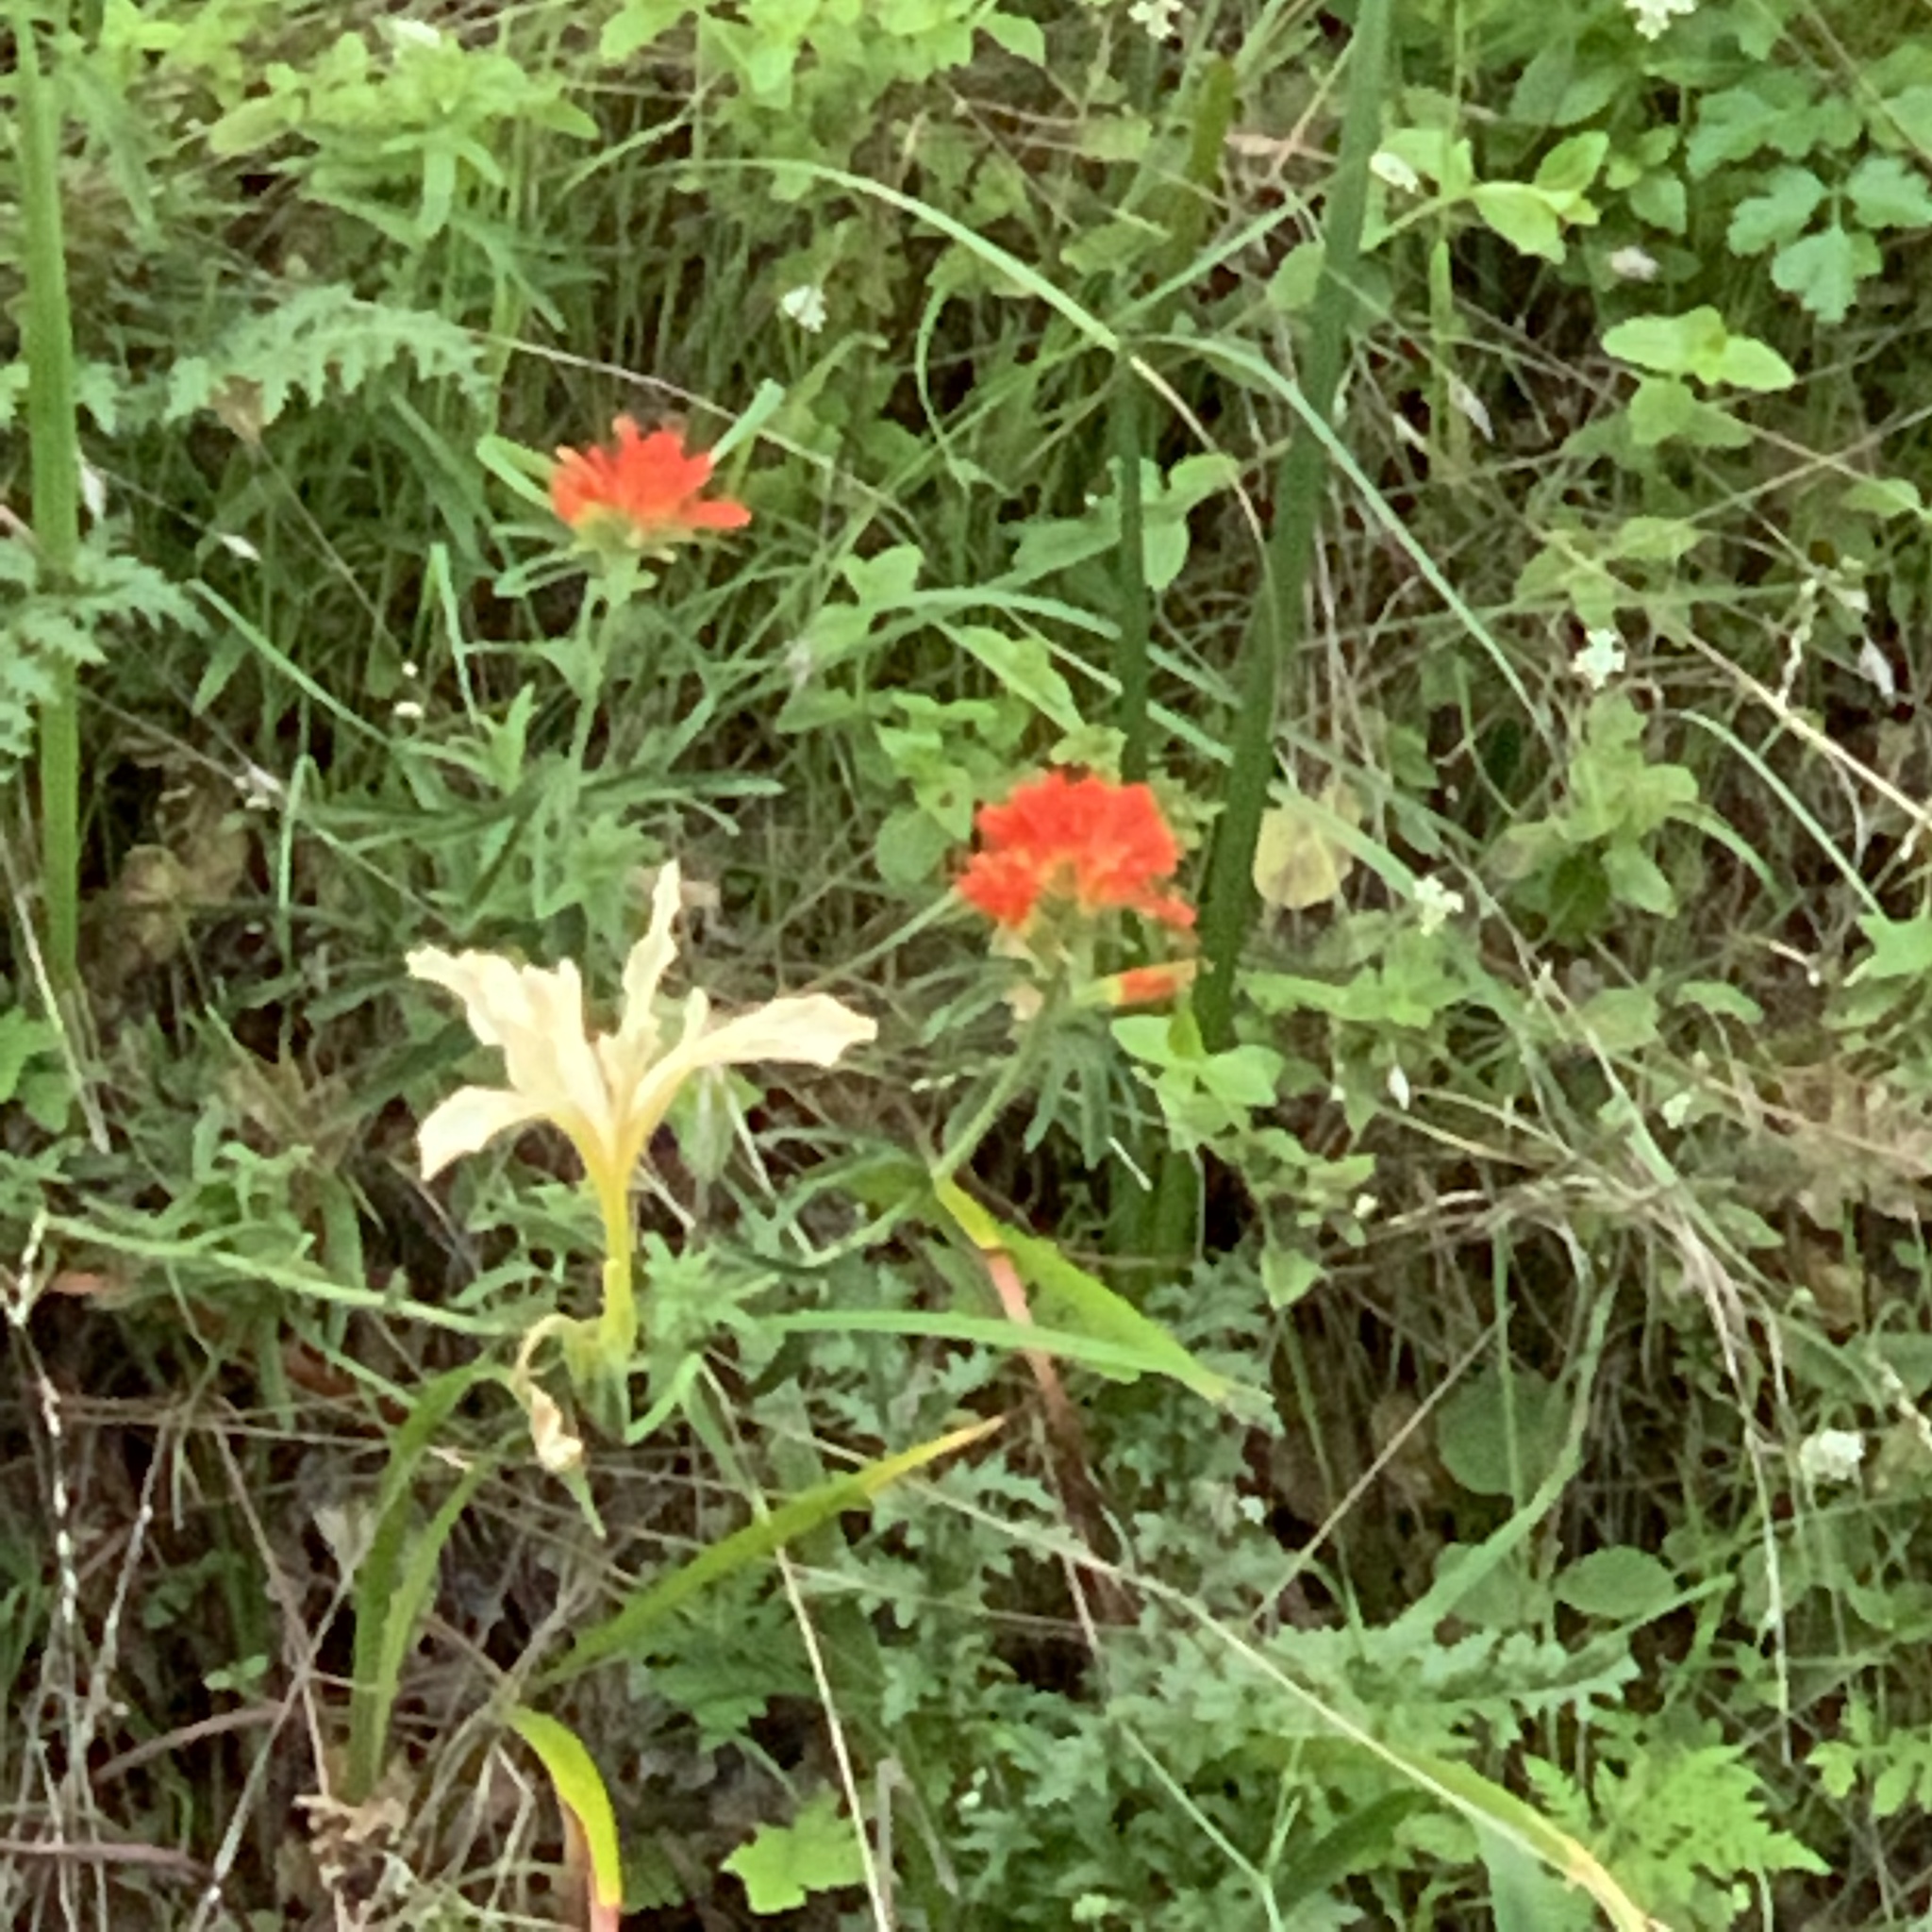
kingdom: Plantae
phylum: Tracheophyta
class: Magnoliopsida
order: Lamiales
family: Orobanchaceae
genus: Castilleja
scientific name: Castilleja affinis
